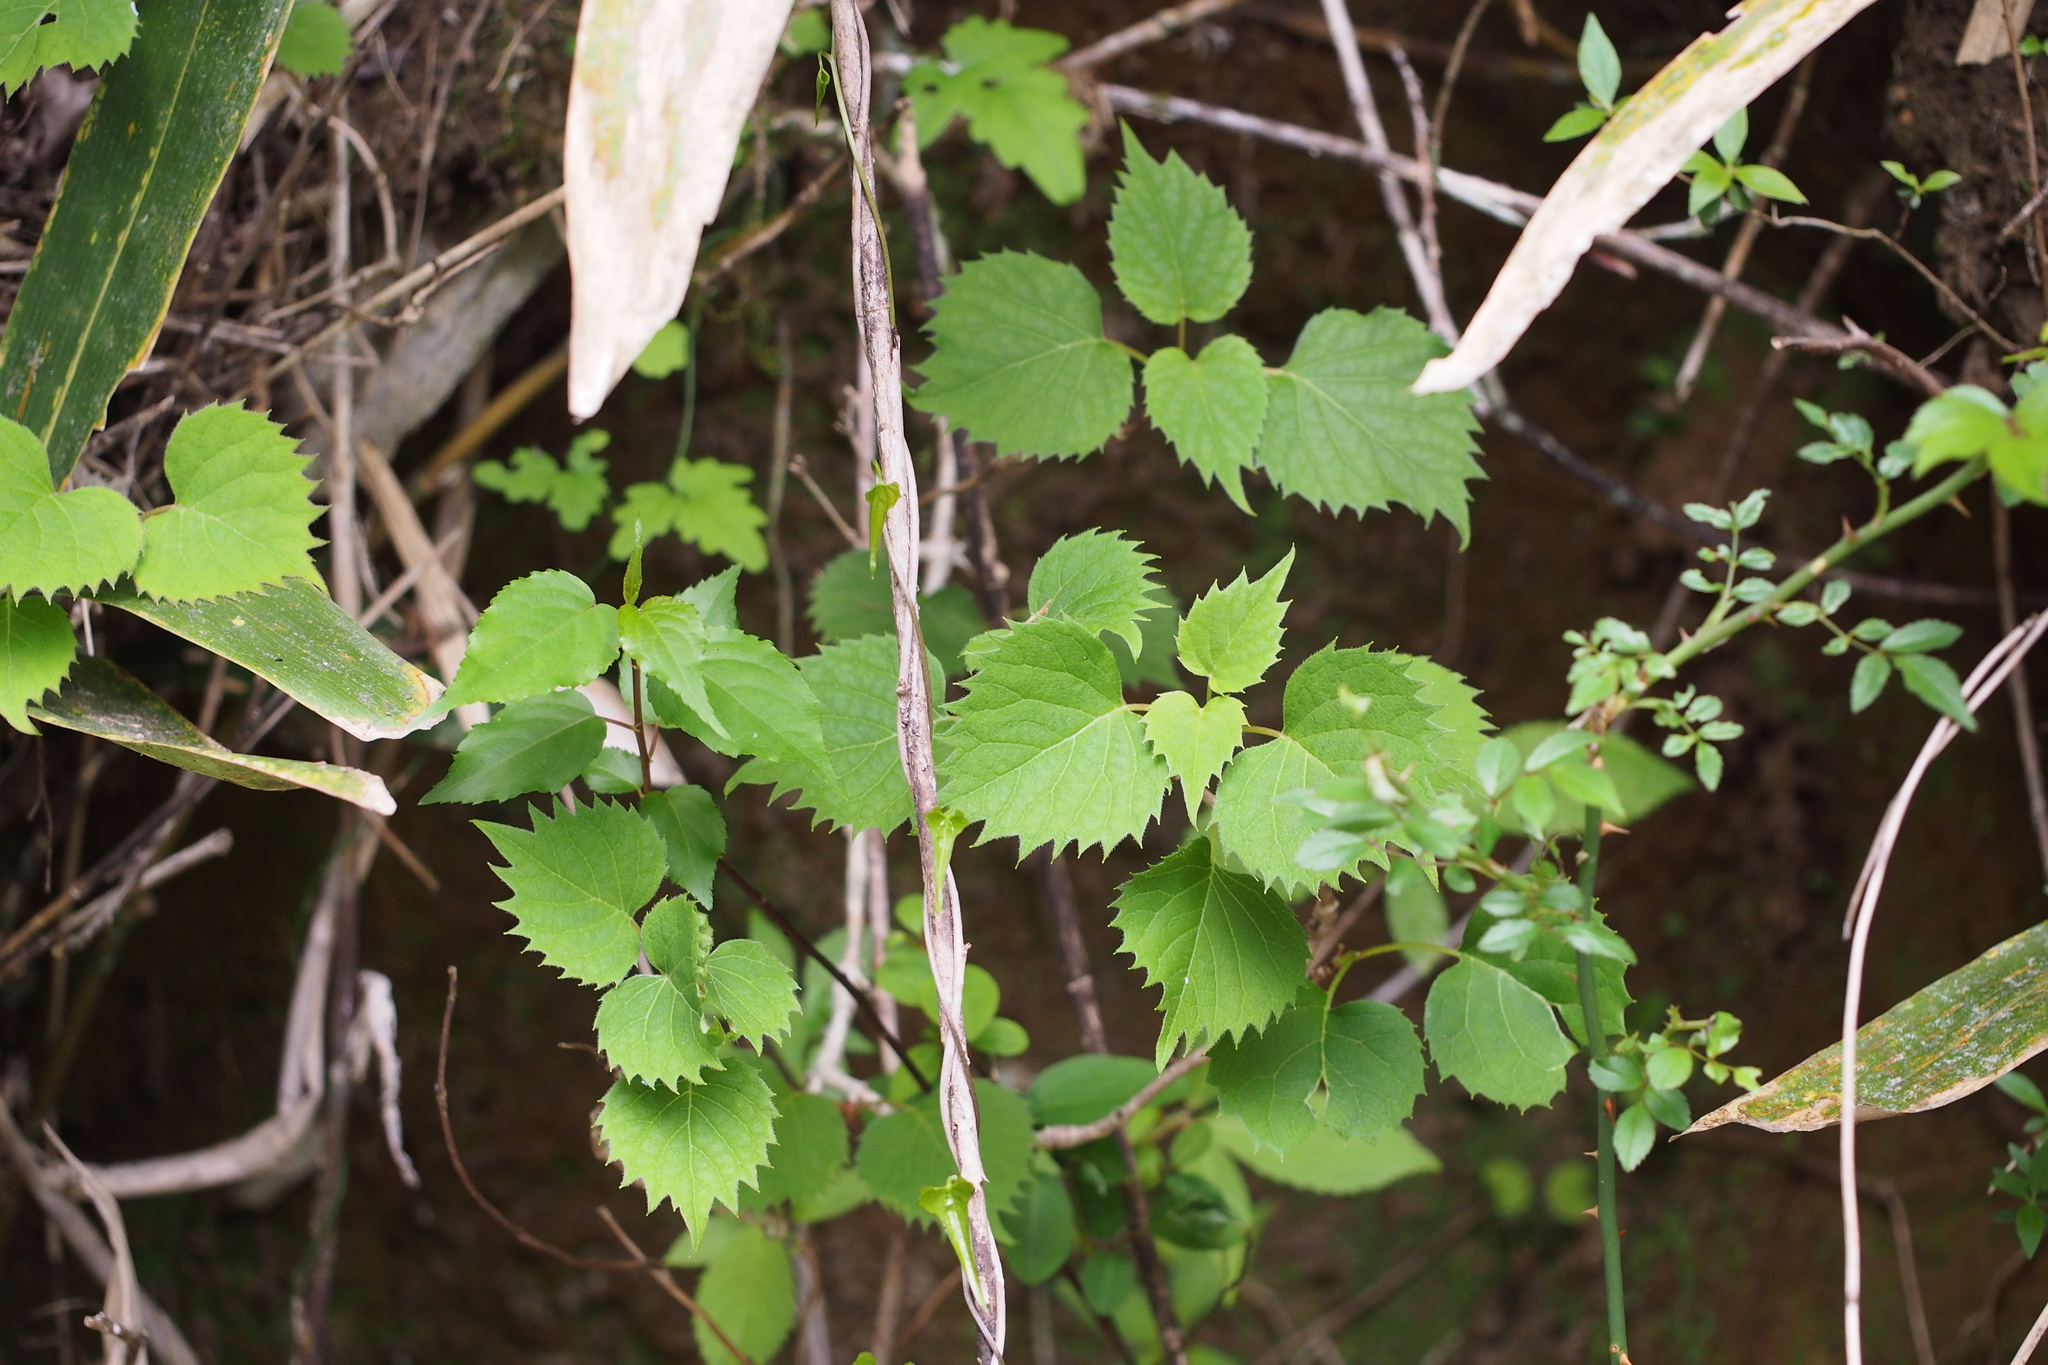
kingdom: Plantae
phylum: Tracheophyta
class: Magnoliopsida
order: Cornales
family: Hydrangeaceae
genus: Hydrangea
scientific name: Hydrangea hydrangeoides
